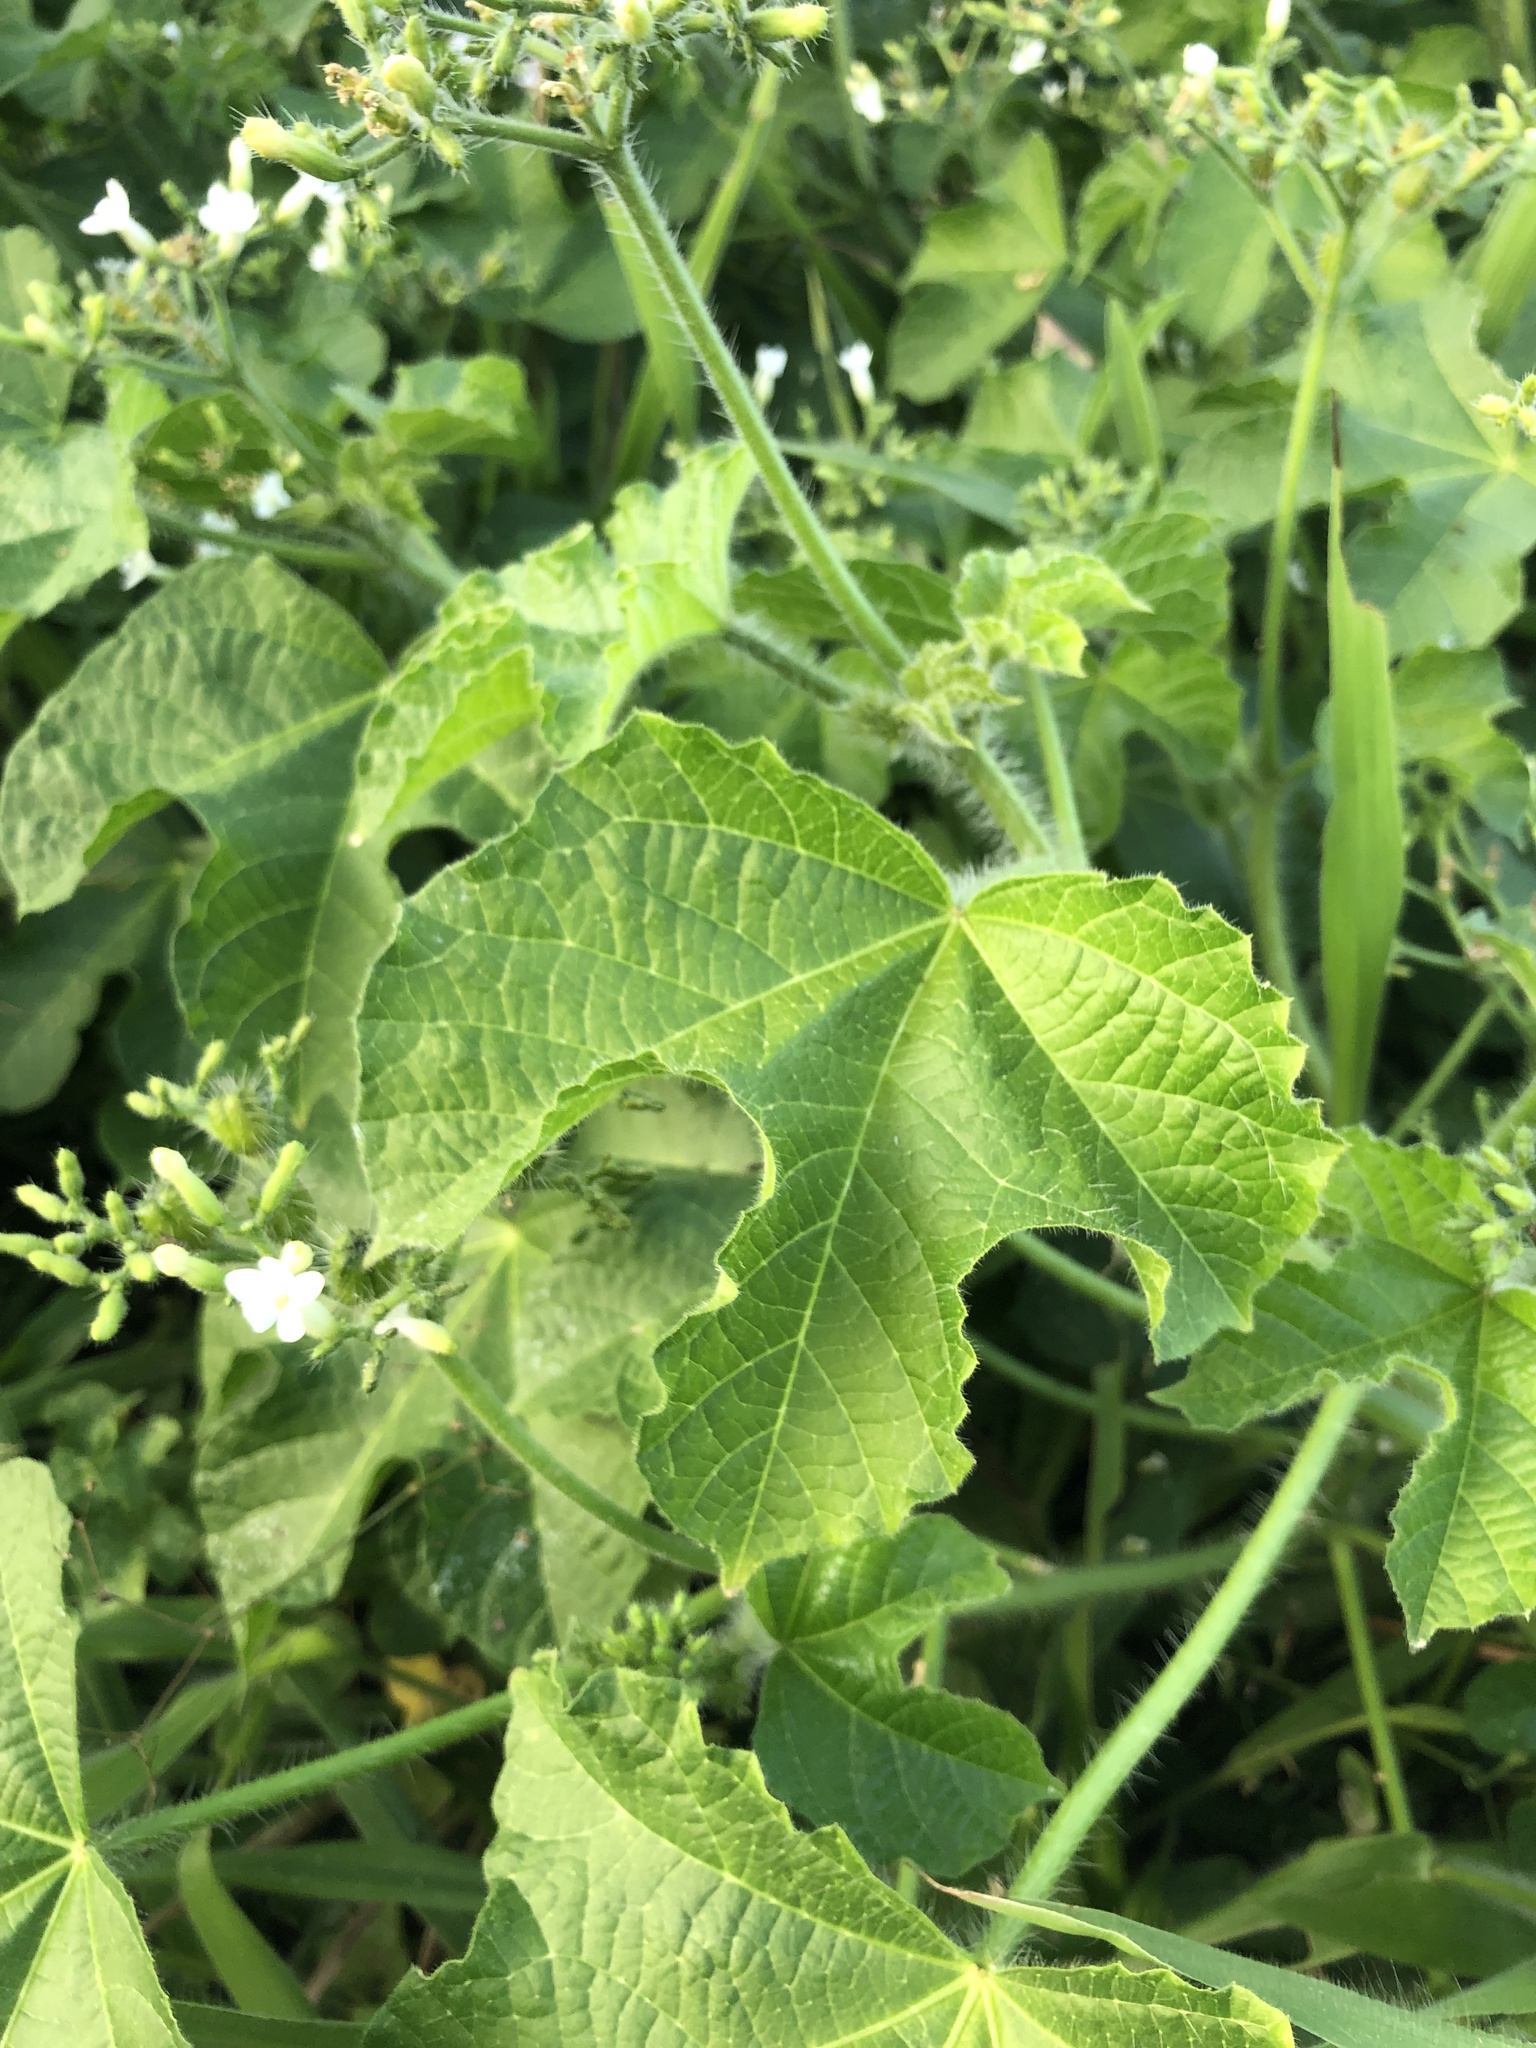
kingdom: Plantae
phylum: Tracheophyta
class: Magnoliopsida
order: Malpighiales
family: Euphorbiaceae
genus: Cnidoscolus
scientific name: Cnidoscolus urens
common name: Bull-nettle
